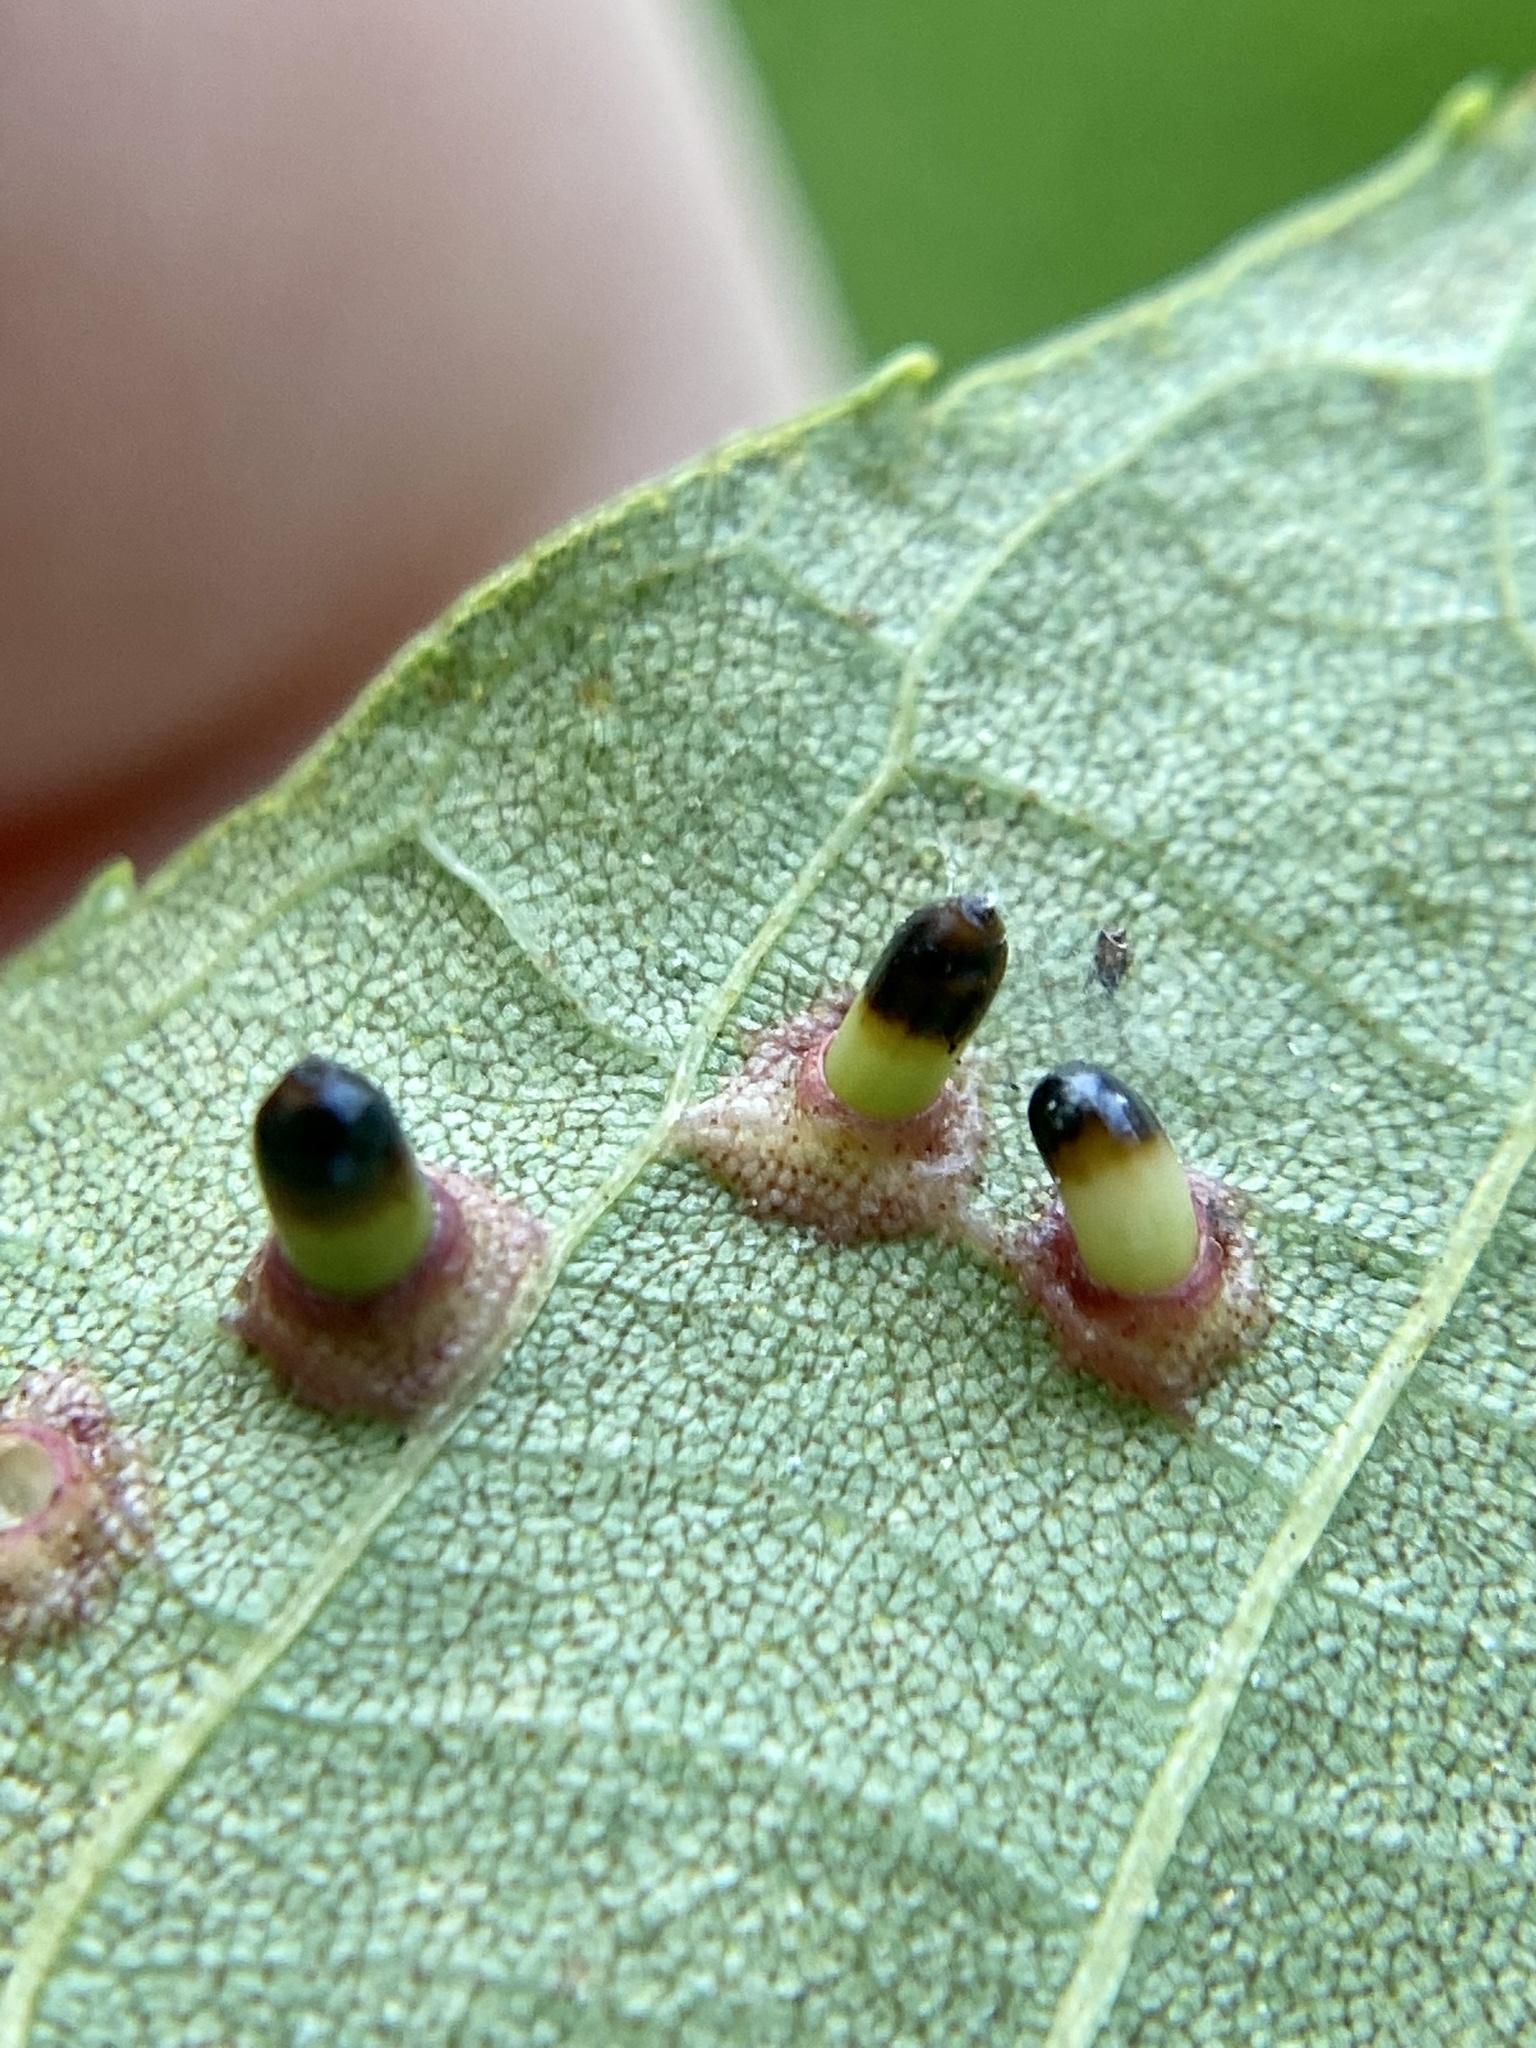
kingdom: Animalia
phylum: Arthropoda
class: Insecta
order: Diptera
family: Cecidomyiidae
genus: Caryomyia
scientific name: Caryomyia tubicola
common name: Hickory bullet gall midge
